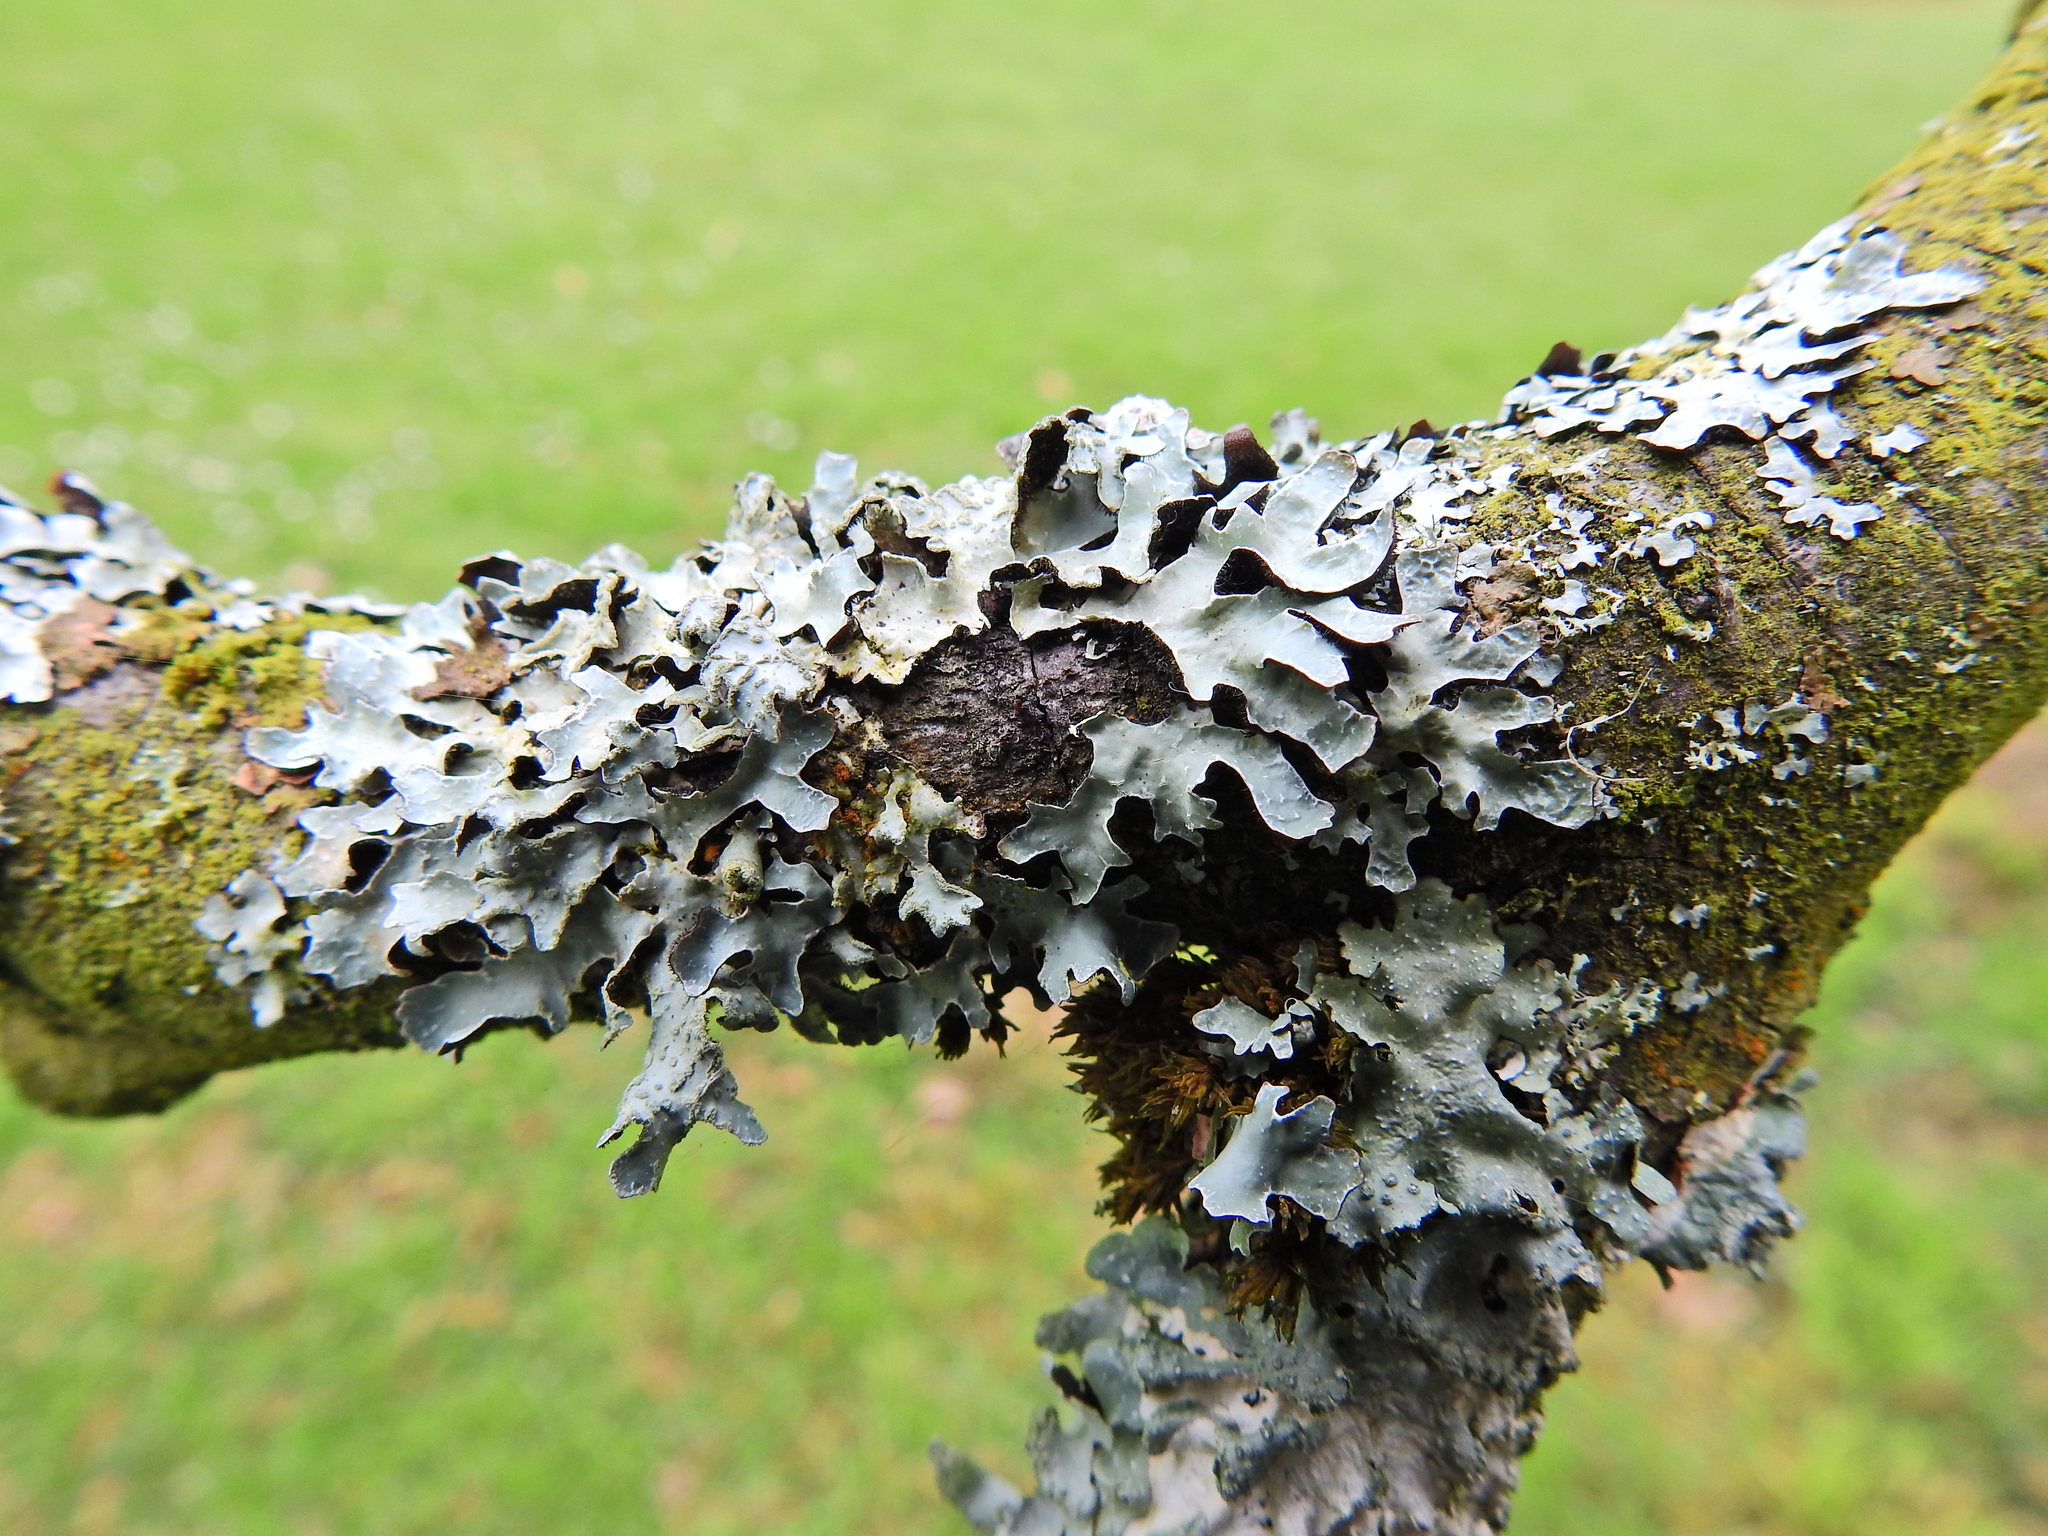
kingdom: Fungi
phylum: Ascomycota
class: Lecanoromycetes
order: Lecanorales
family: Parmeliaceae
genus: Parmelia
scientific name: Parmelia sulcata
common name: Netted shield lichen
